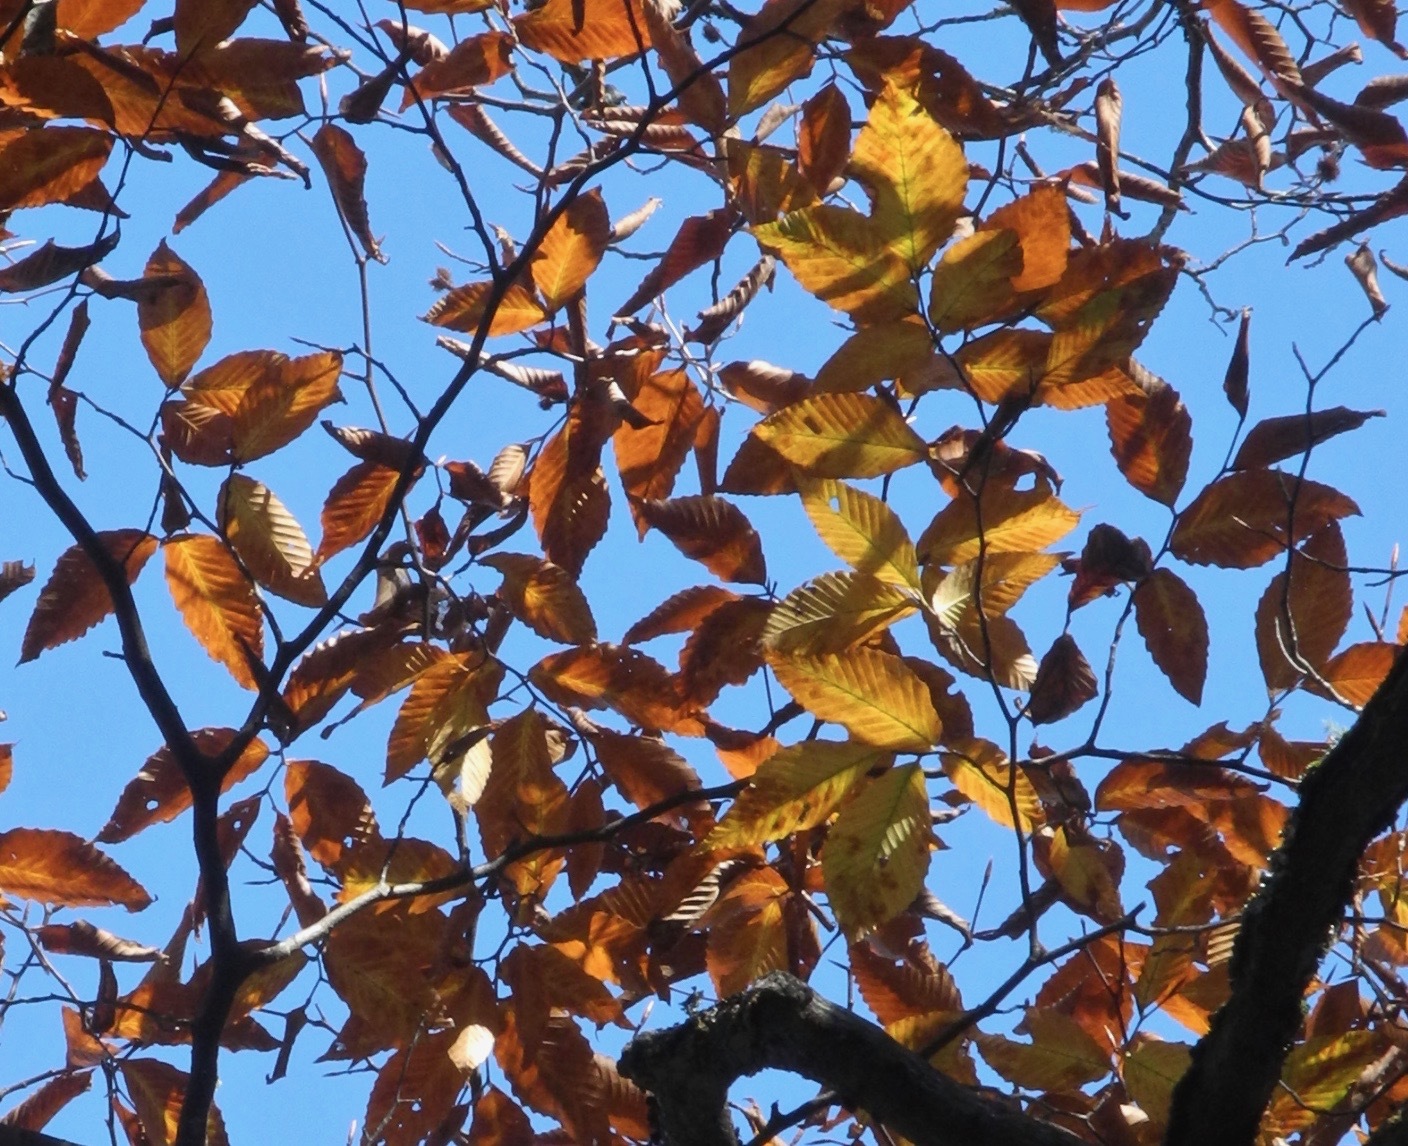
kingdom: Plantae
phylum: Tracheophyta
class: Magnoliopsida
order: Fagales
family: Fagaceae
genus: Fagus
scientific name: Fagus grandifolia
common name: American beech
